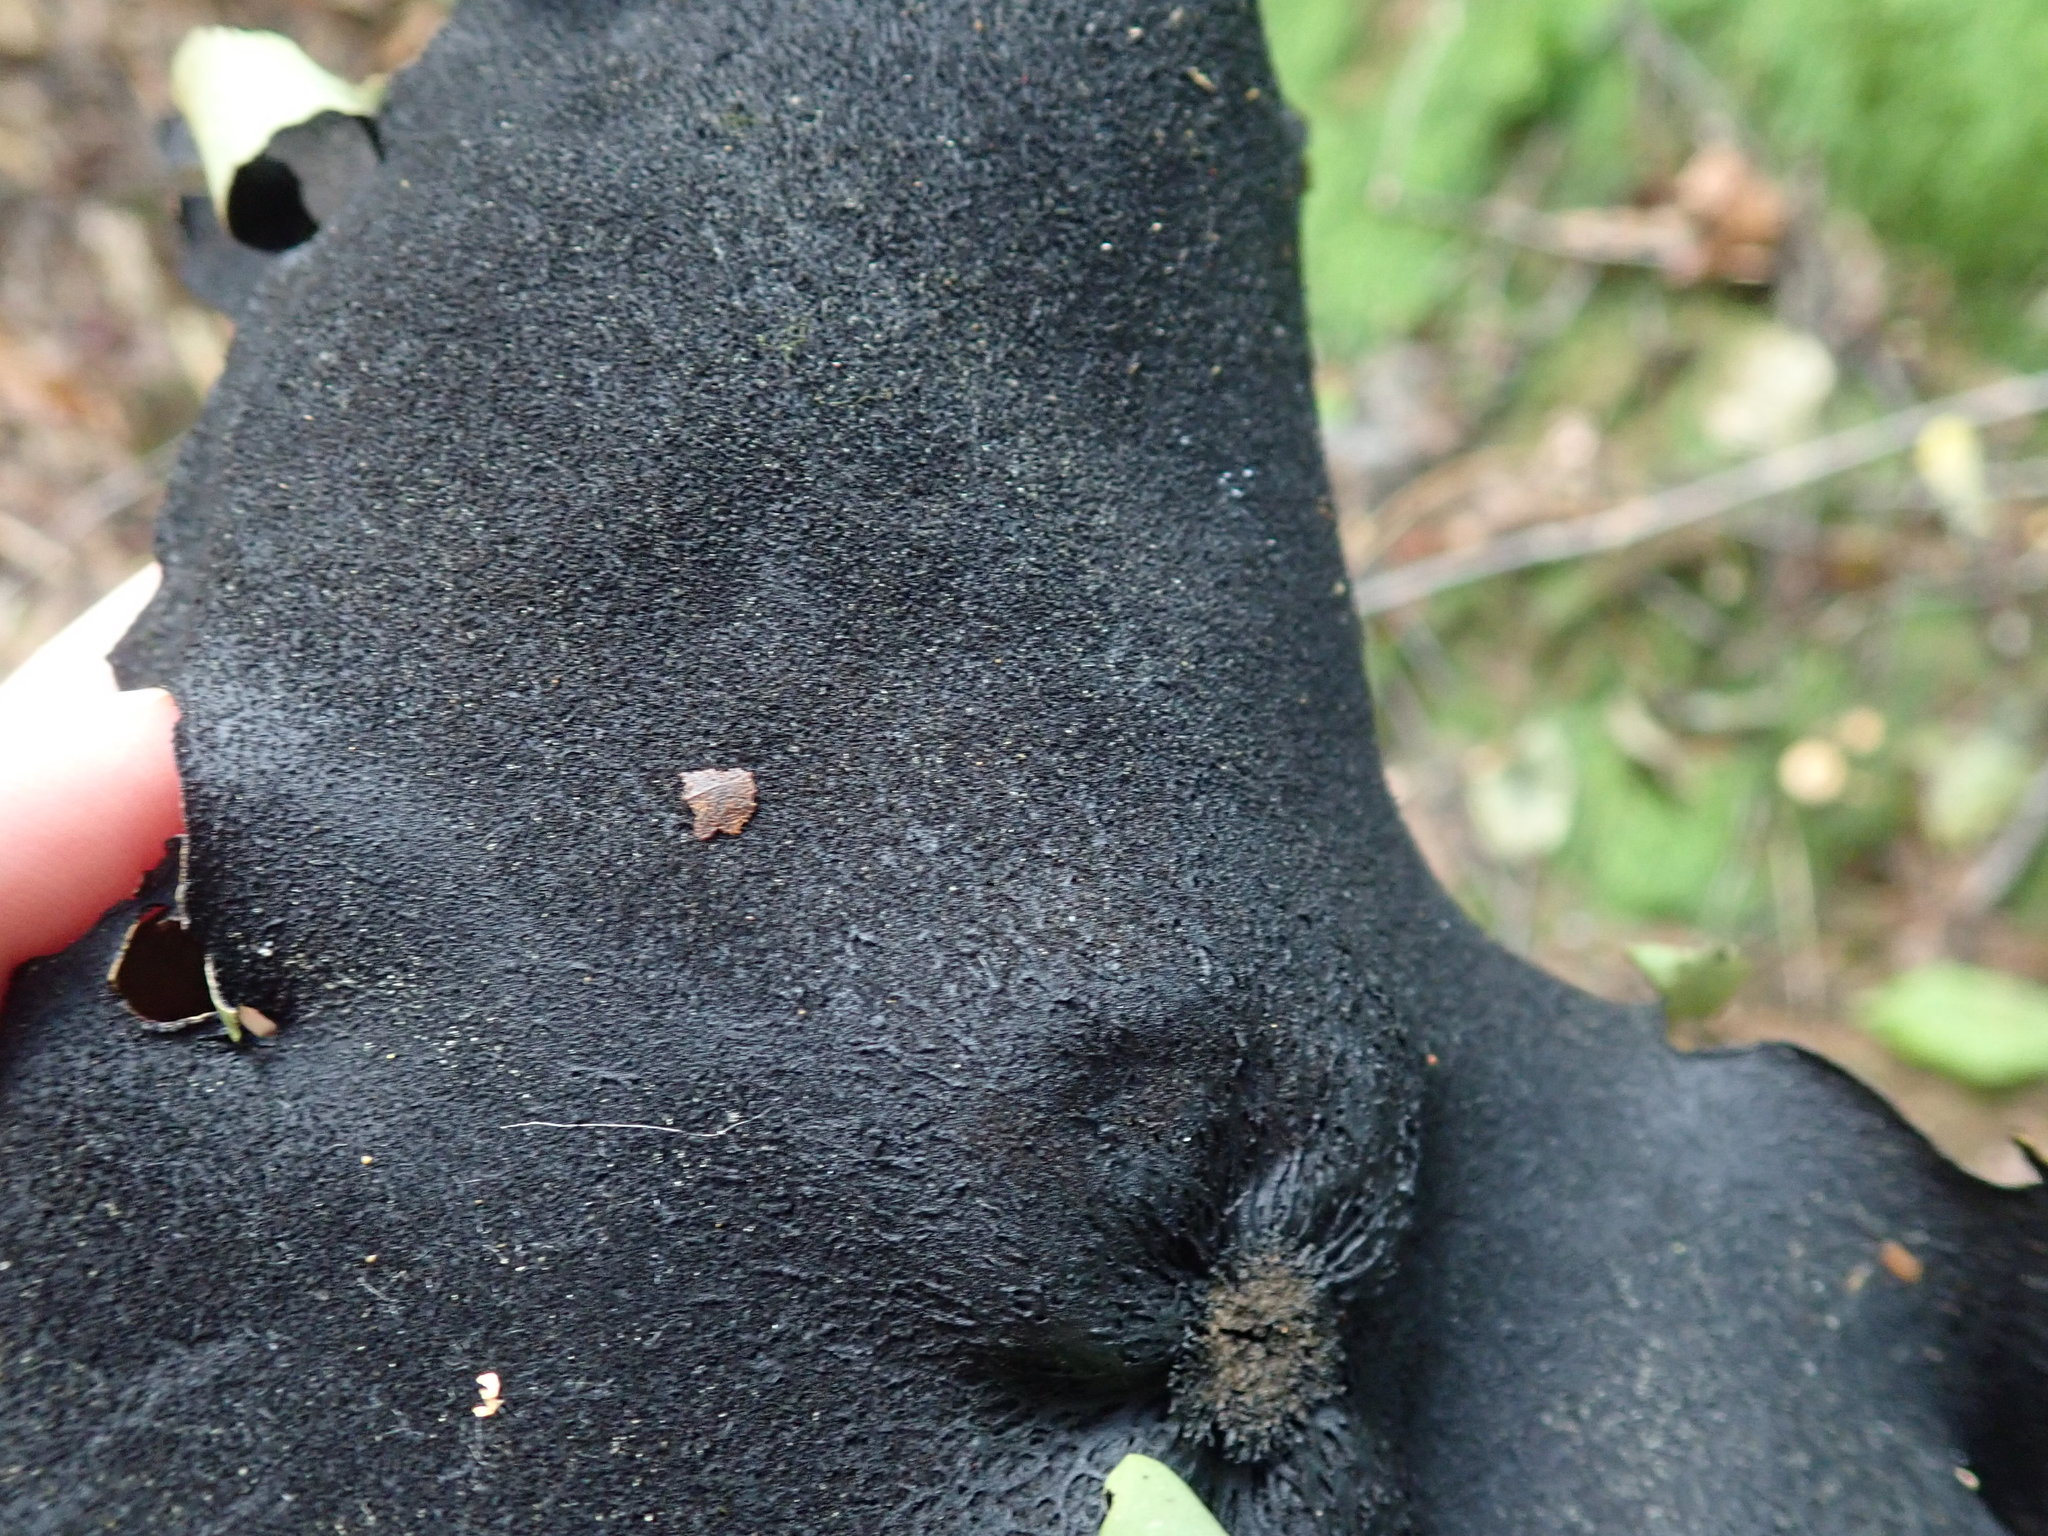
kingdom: Fungi
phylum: Ascomycota
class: Lecanoromycetes
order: Umbilicariales
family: Umbilicariaceae
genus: Umbilicaria
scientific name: Umbilicaria mammulata
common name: Smooth rock tripe
